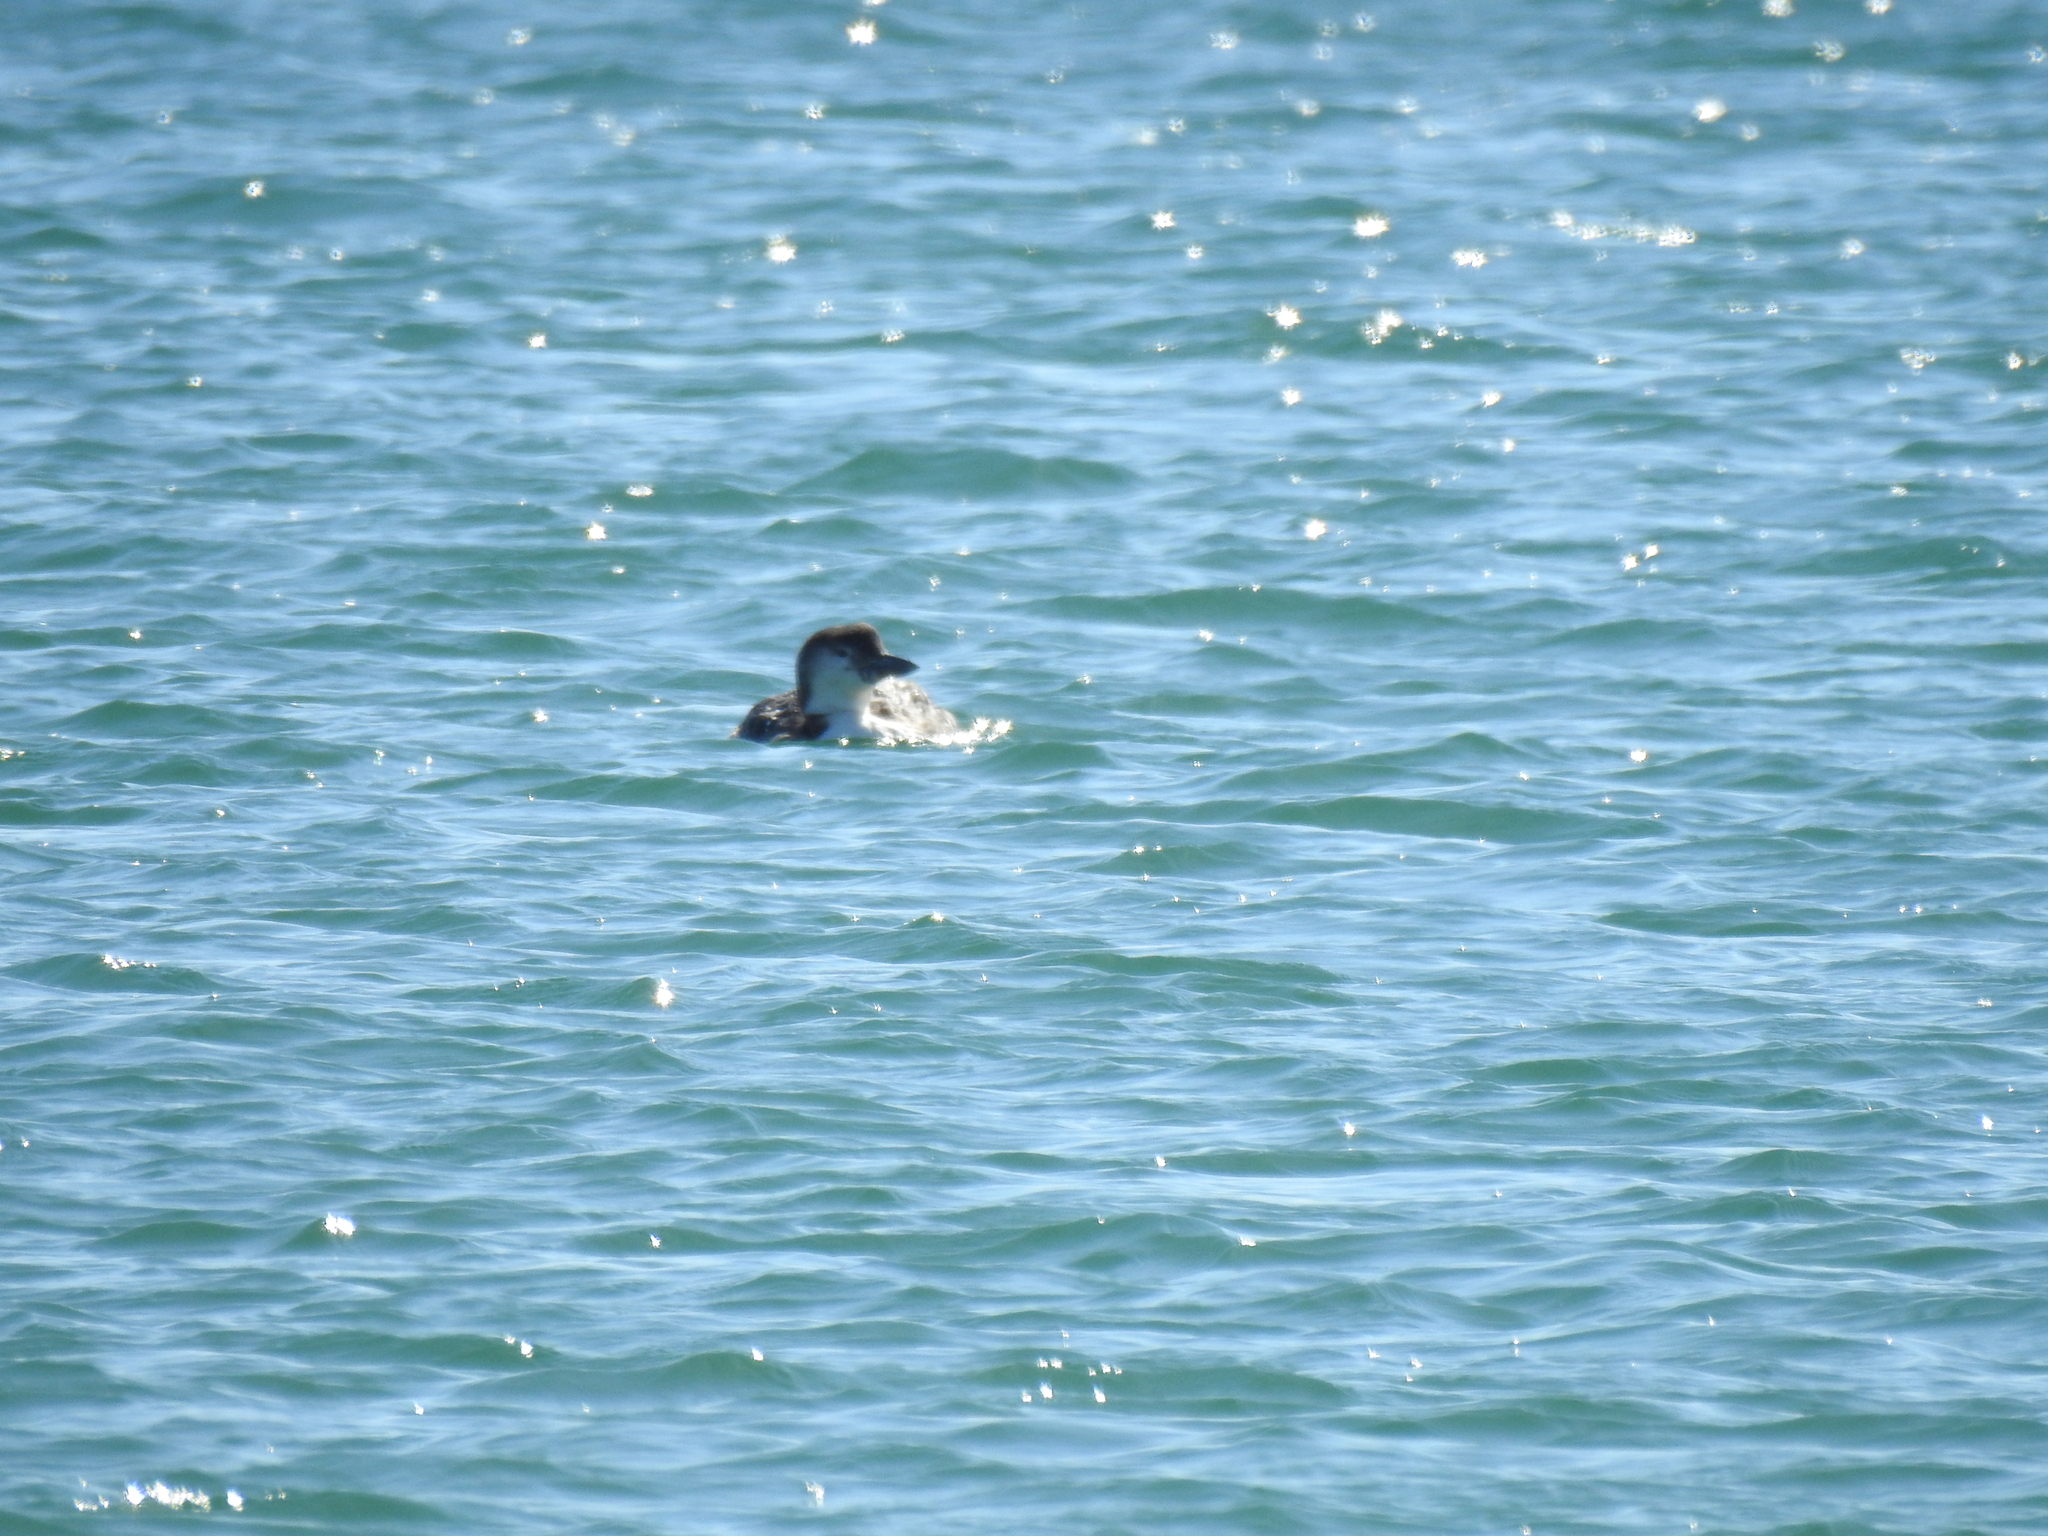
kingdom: Animalia
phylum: Chordata
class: Aves
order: Gaviiformes
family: Gaviidae
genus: Gavia
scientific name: Gavia immer
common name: Common loon
